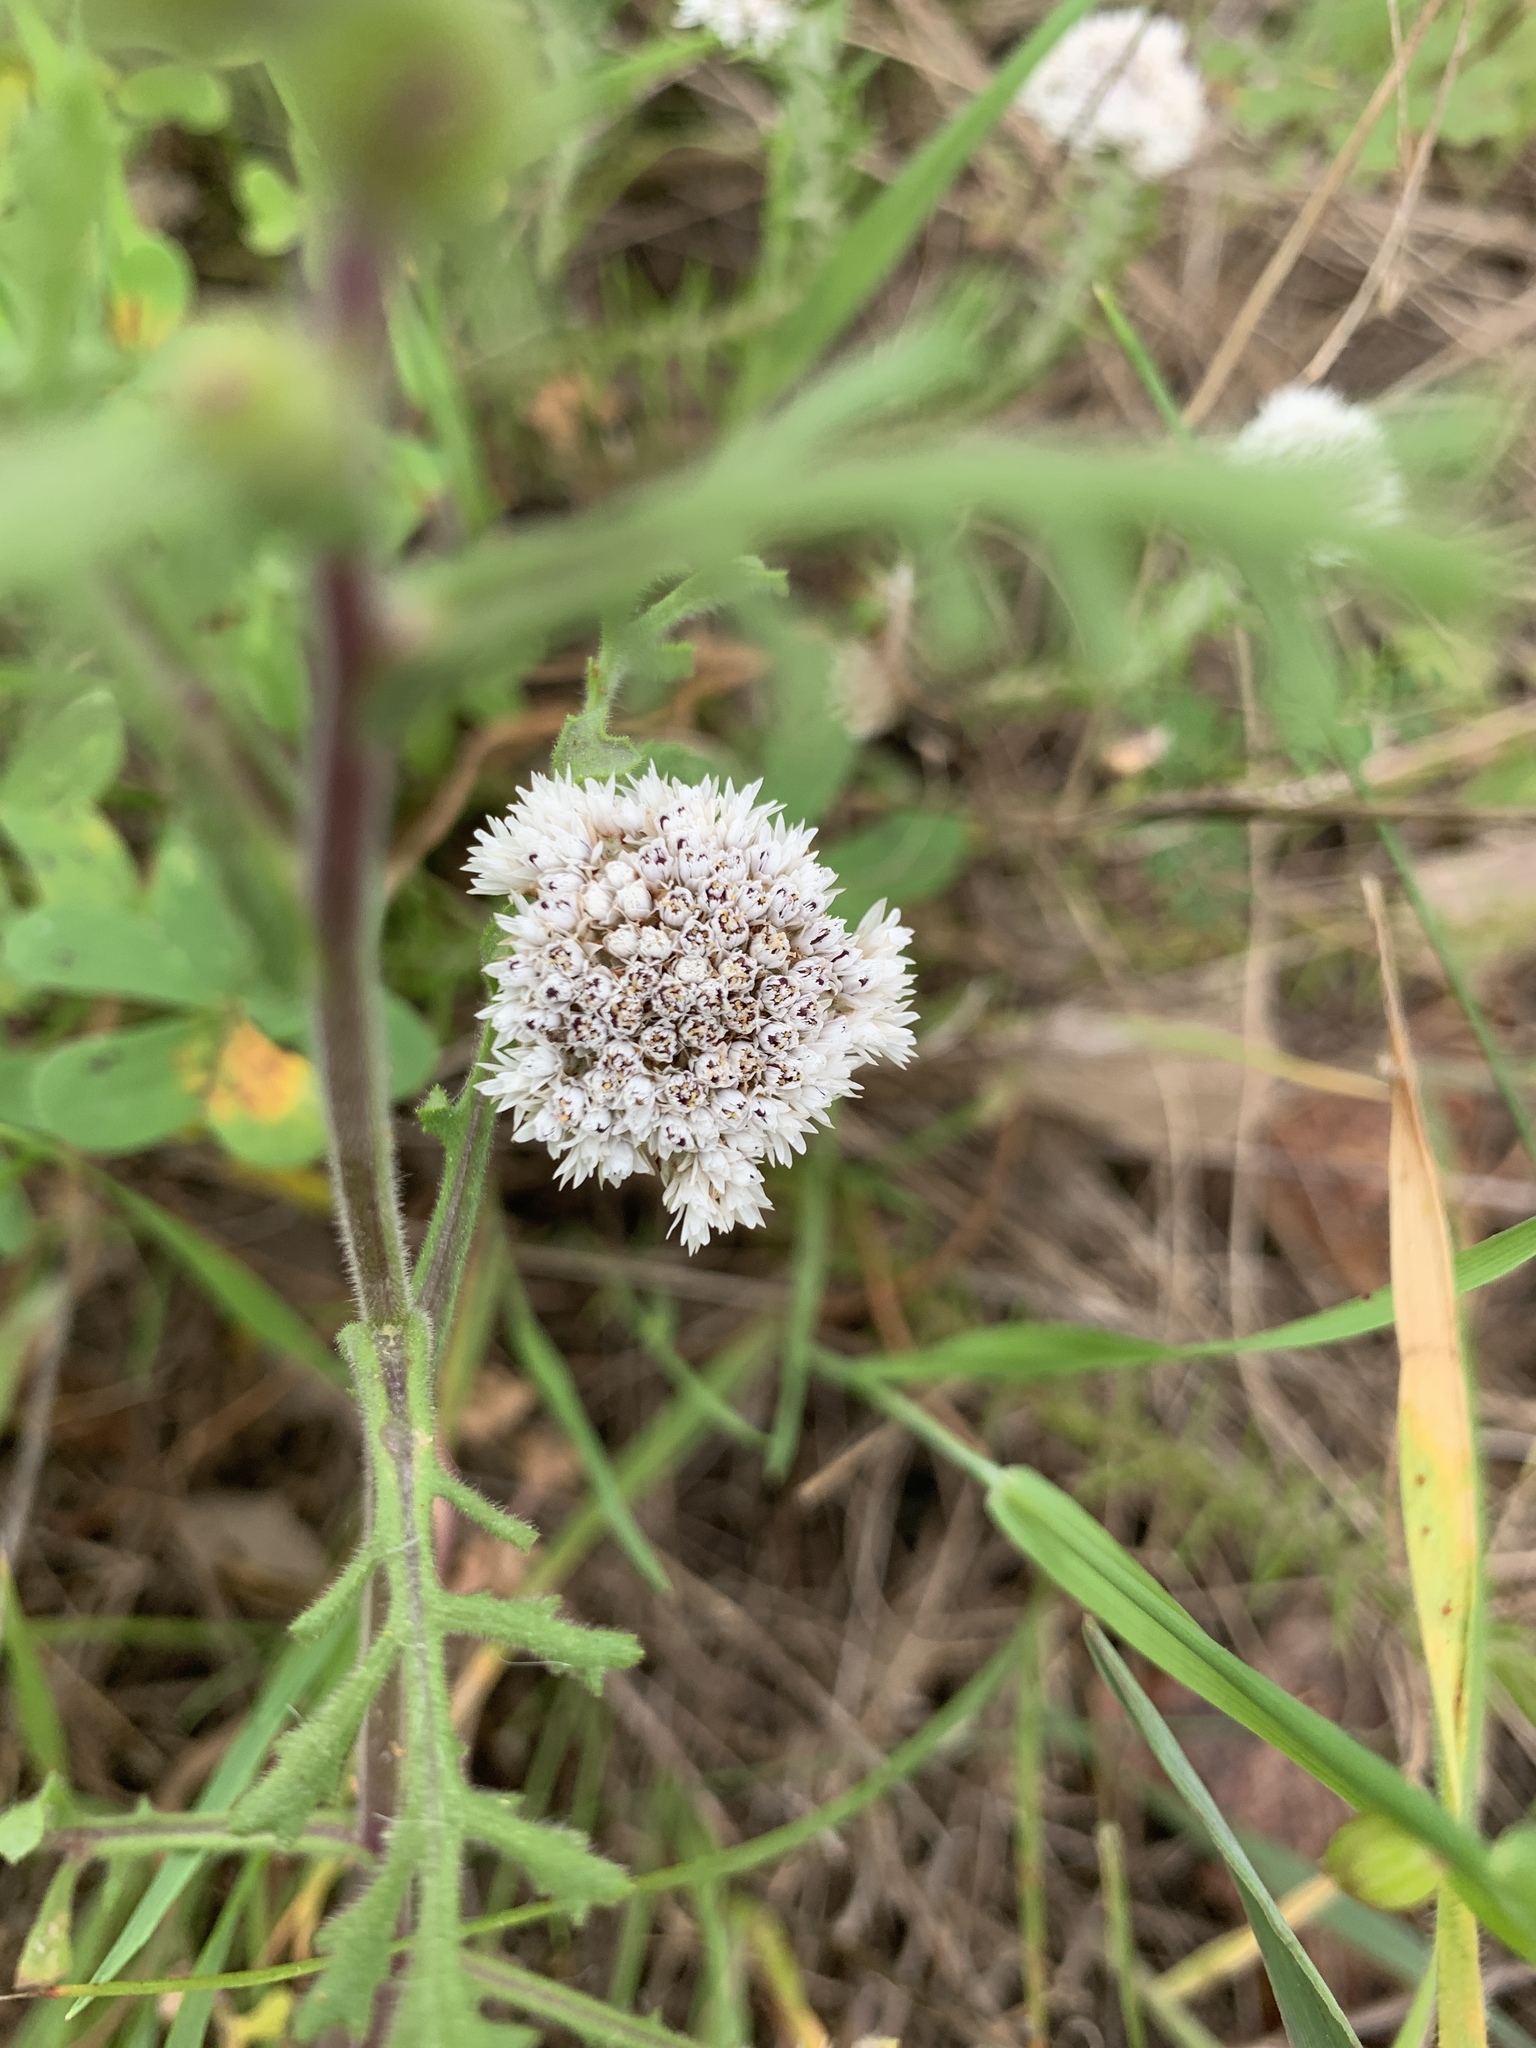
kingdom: Plantae
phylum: Tracheophyta
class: Magnoliopsida
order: Asterales
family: Asteraceae
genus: Metalasia
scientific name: Metalasia pulchella
